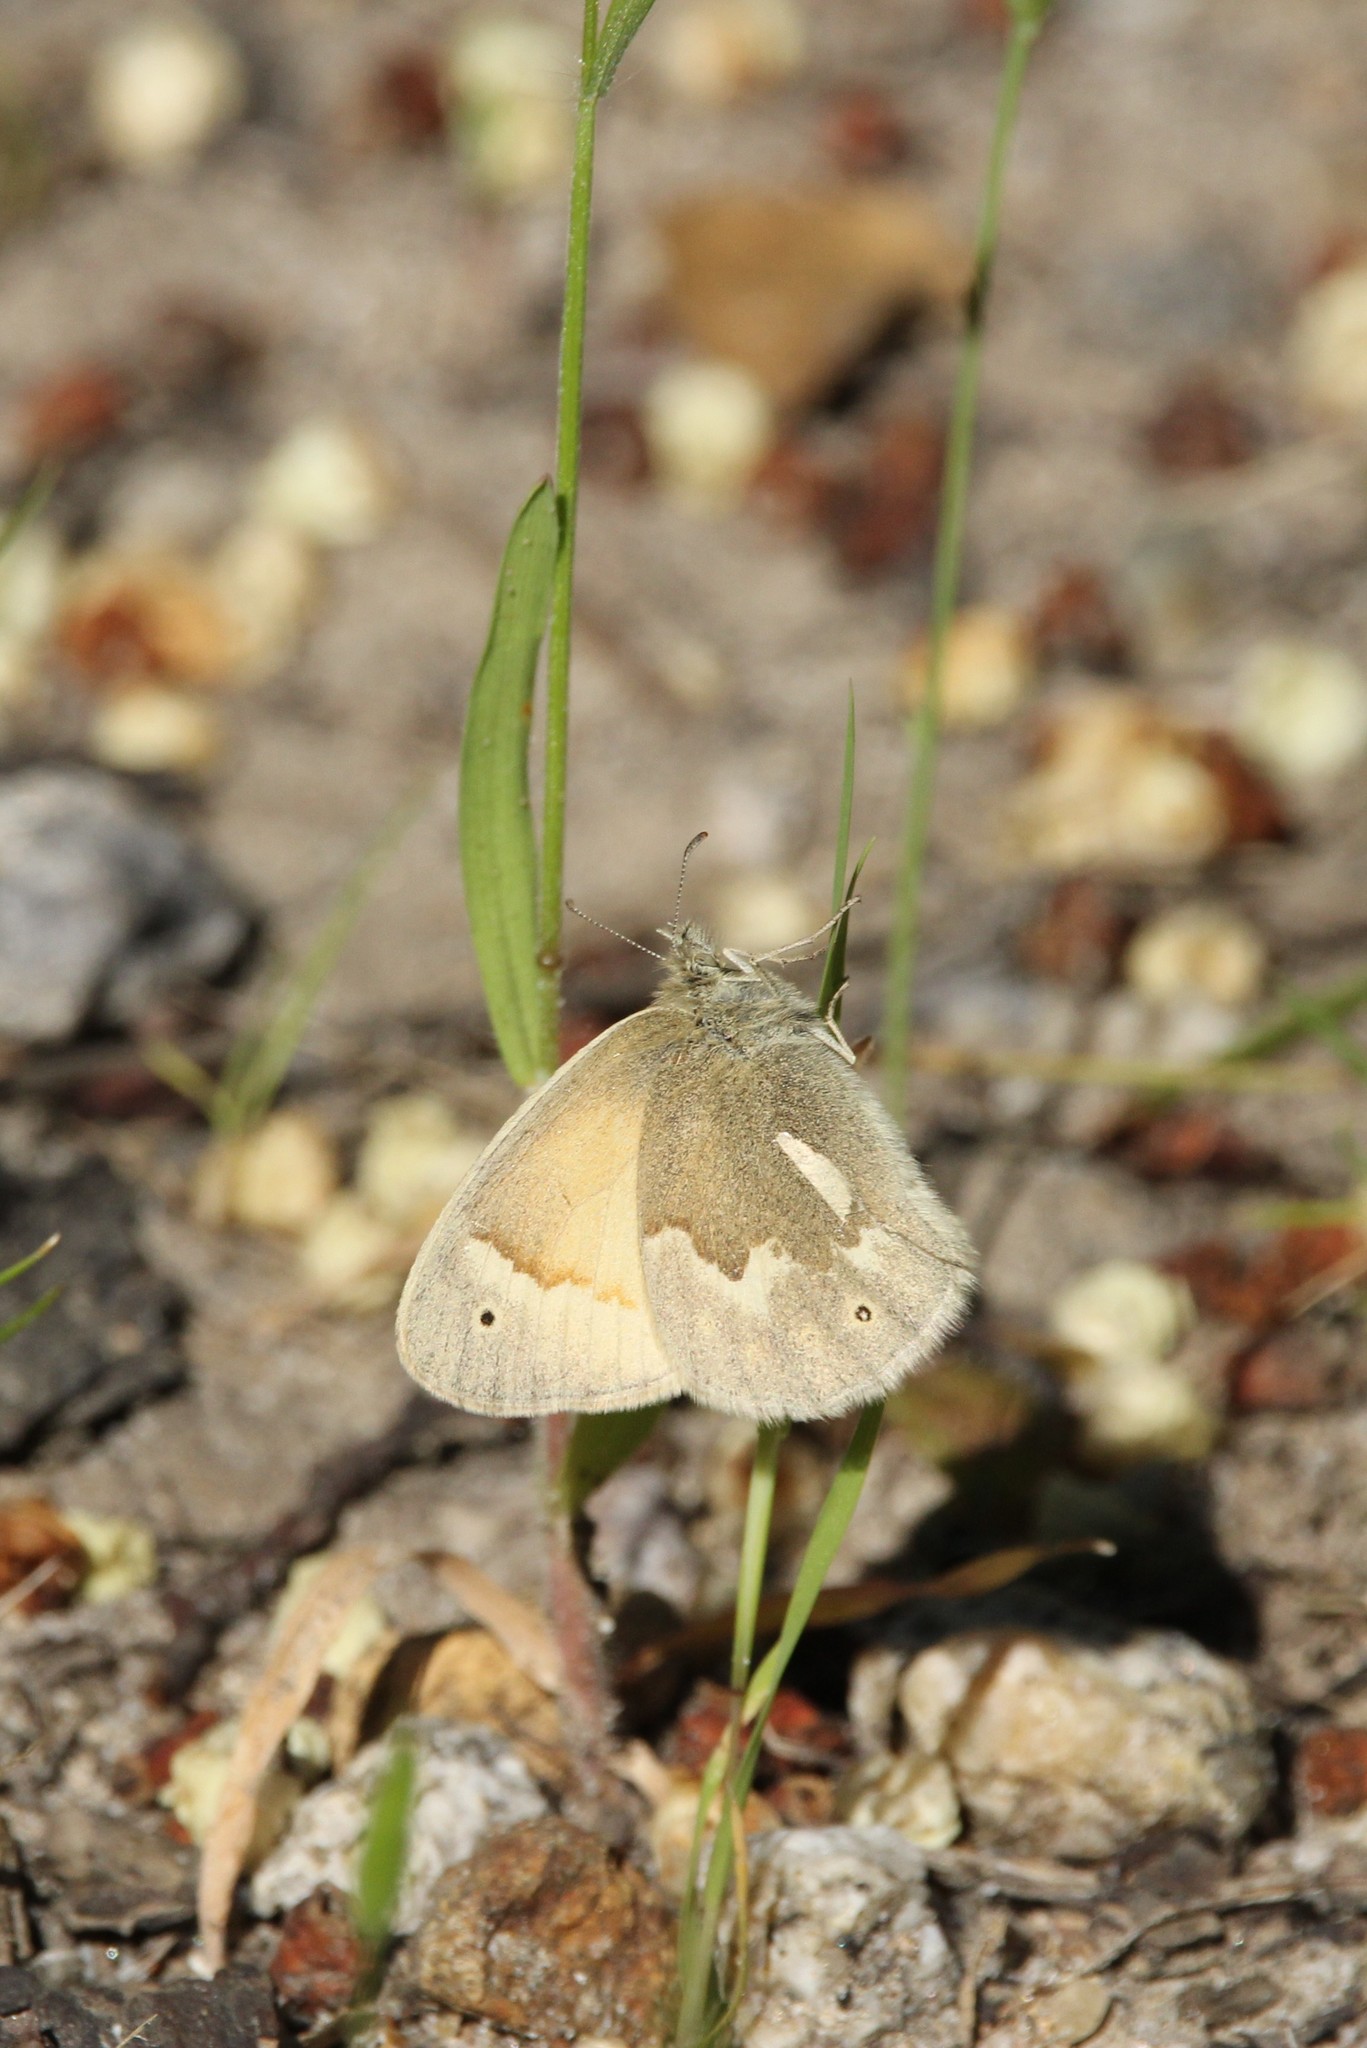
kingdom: Animalia
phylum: Arthropoda
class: Insecta
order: Lepidoptera
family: Nymphalidae
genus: Coenonympha
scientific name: Coenonympha california
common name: Common ringlet
